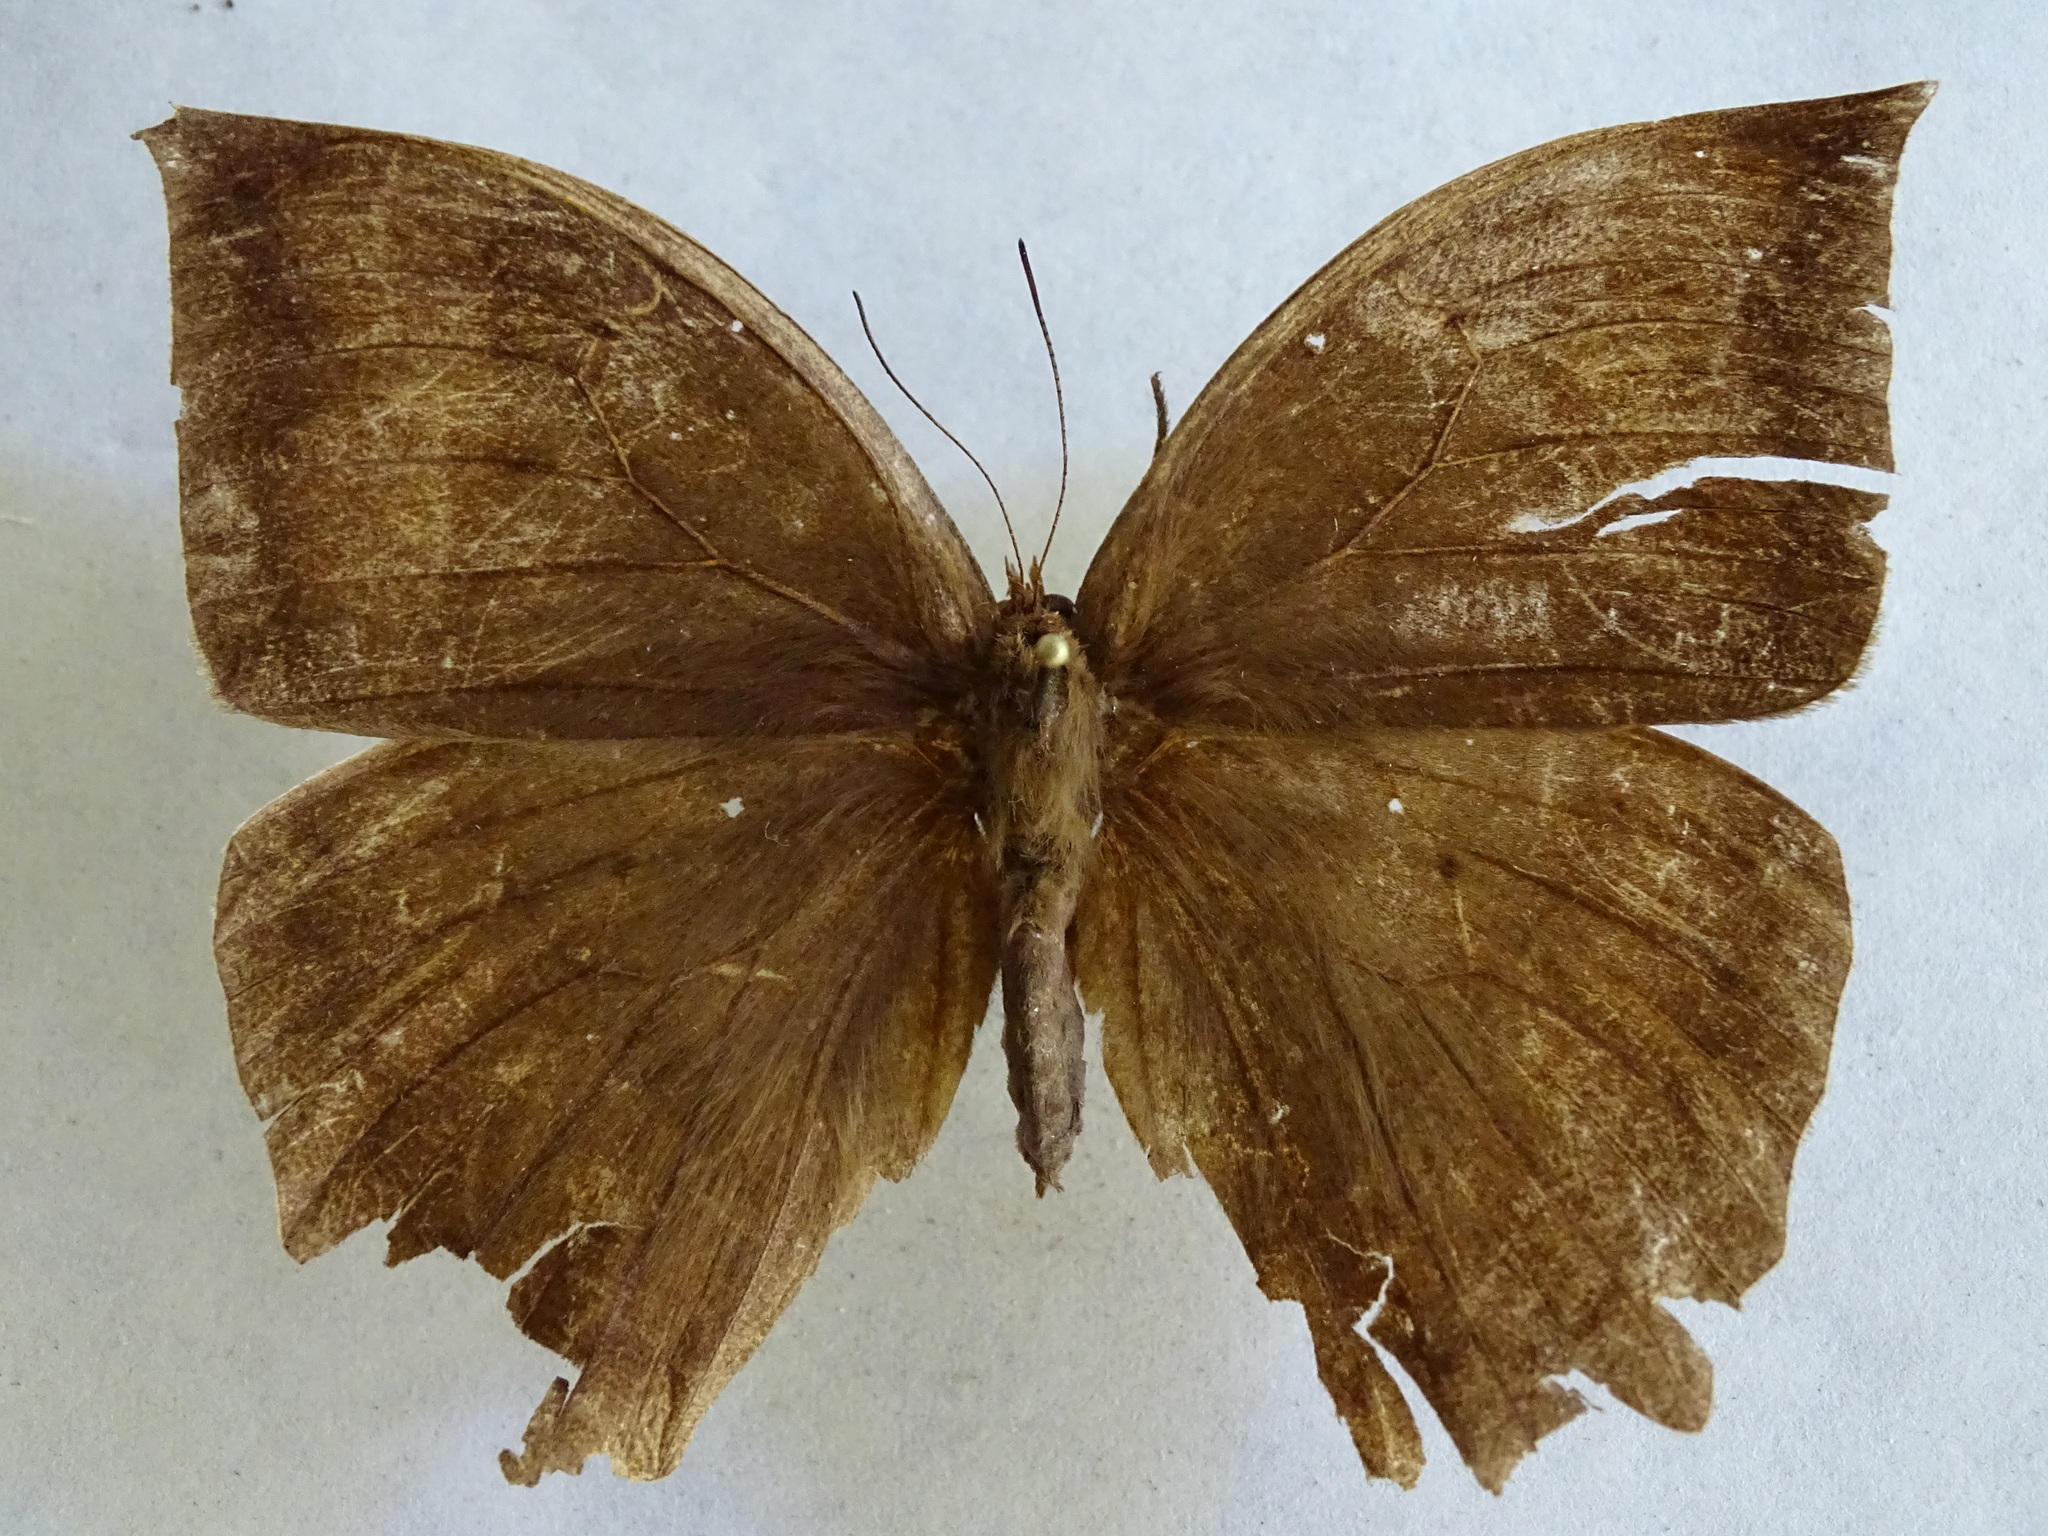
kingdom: Animalia
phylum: Arthropoda
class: Insecta
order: Lepidoptera
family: Nymphalidae
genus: Taygetis
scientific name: Taygetis mermeria
